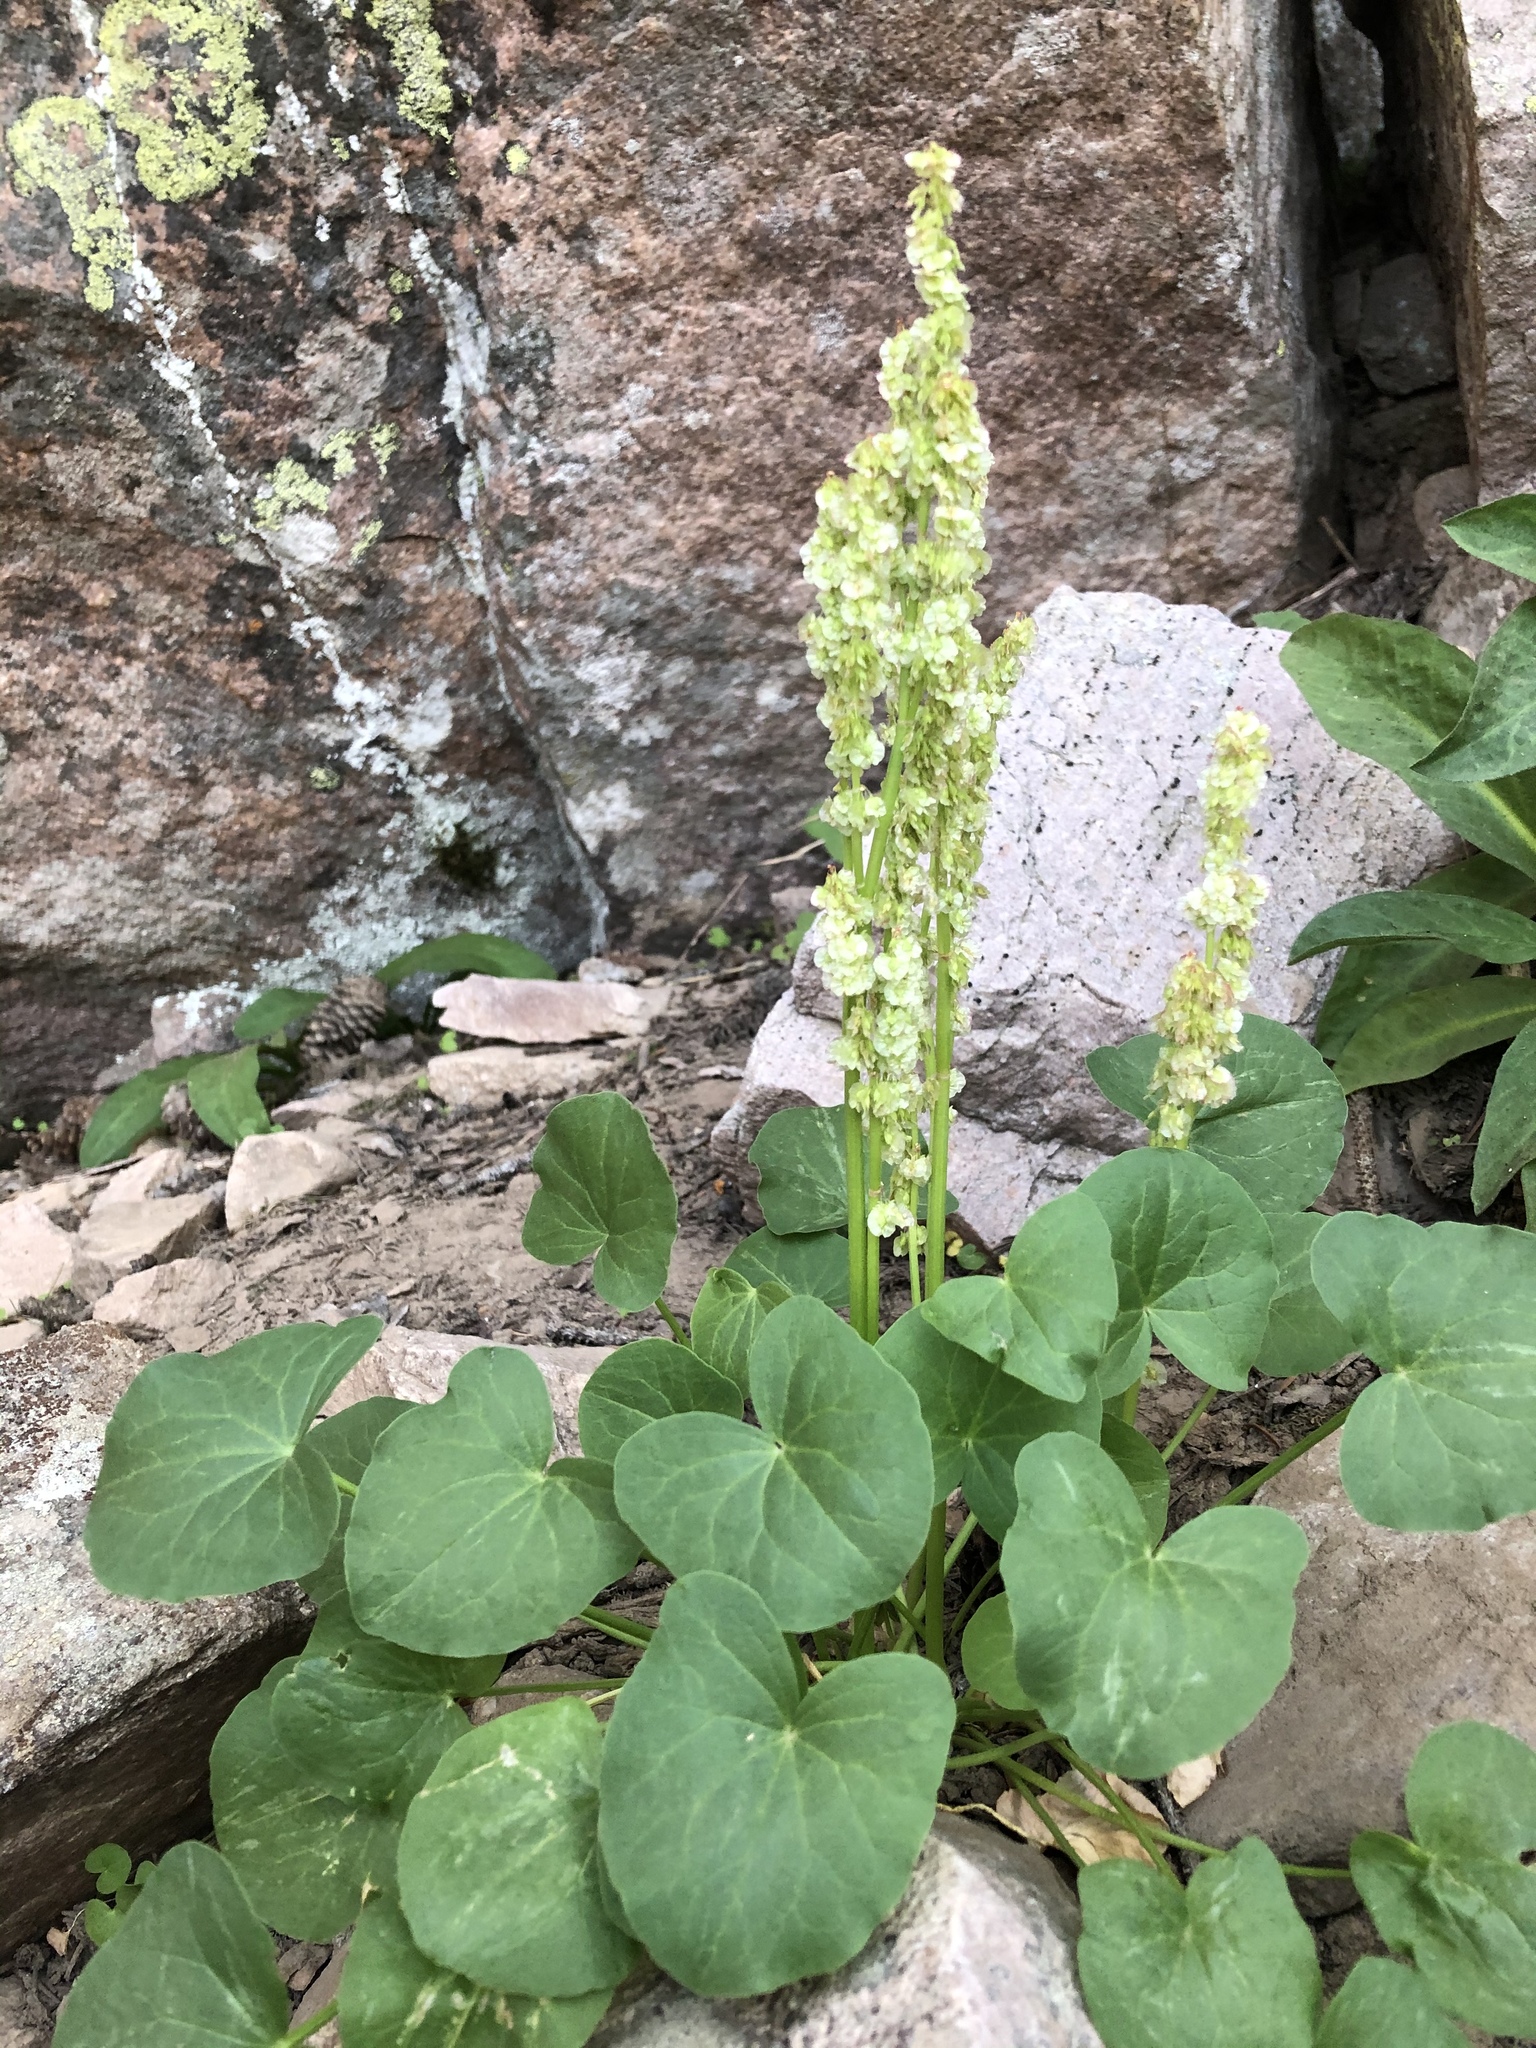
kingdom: Plantae
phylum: Tracheophyta
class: Magnoliopsida
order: Caryophyllales
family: Polygonaceae
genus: Oxyria
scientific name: Oxyria digyna
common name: Alpine mountain-sorrel
